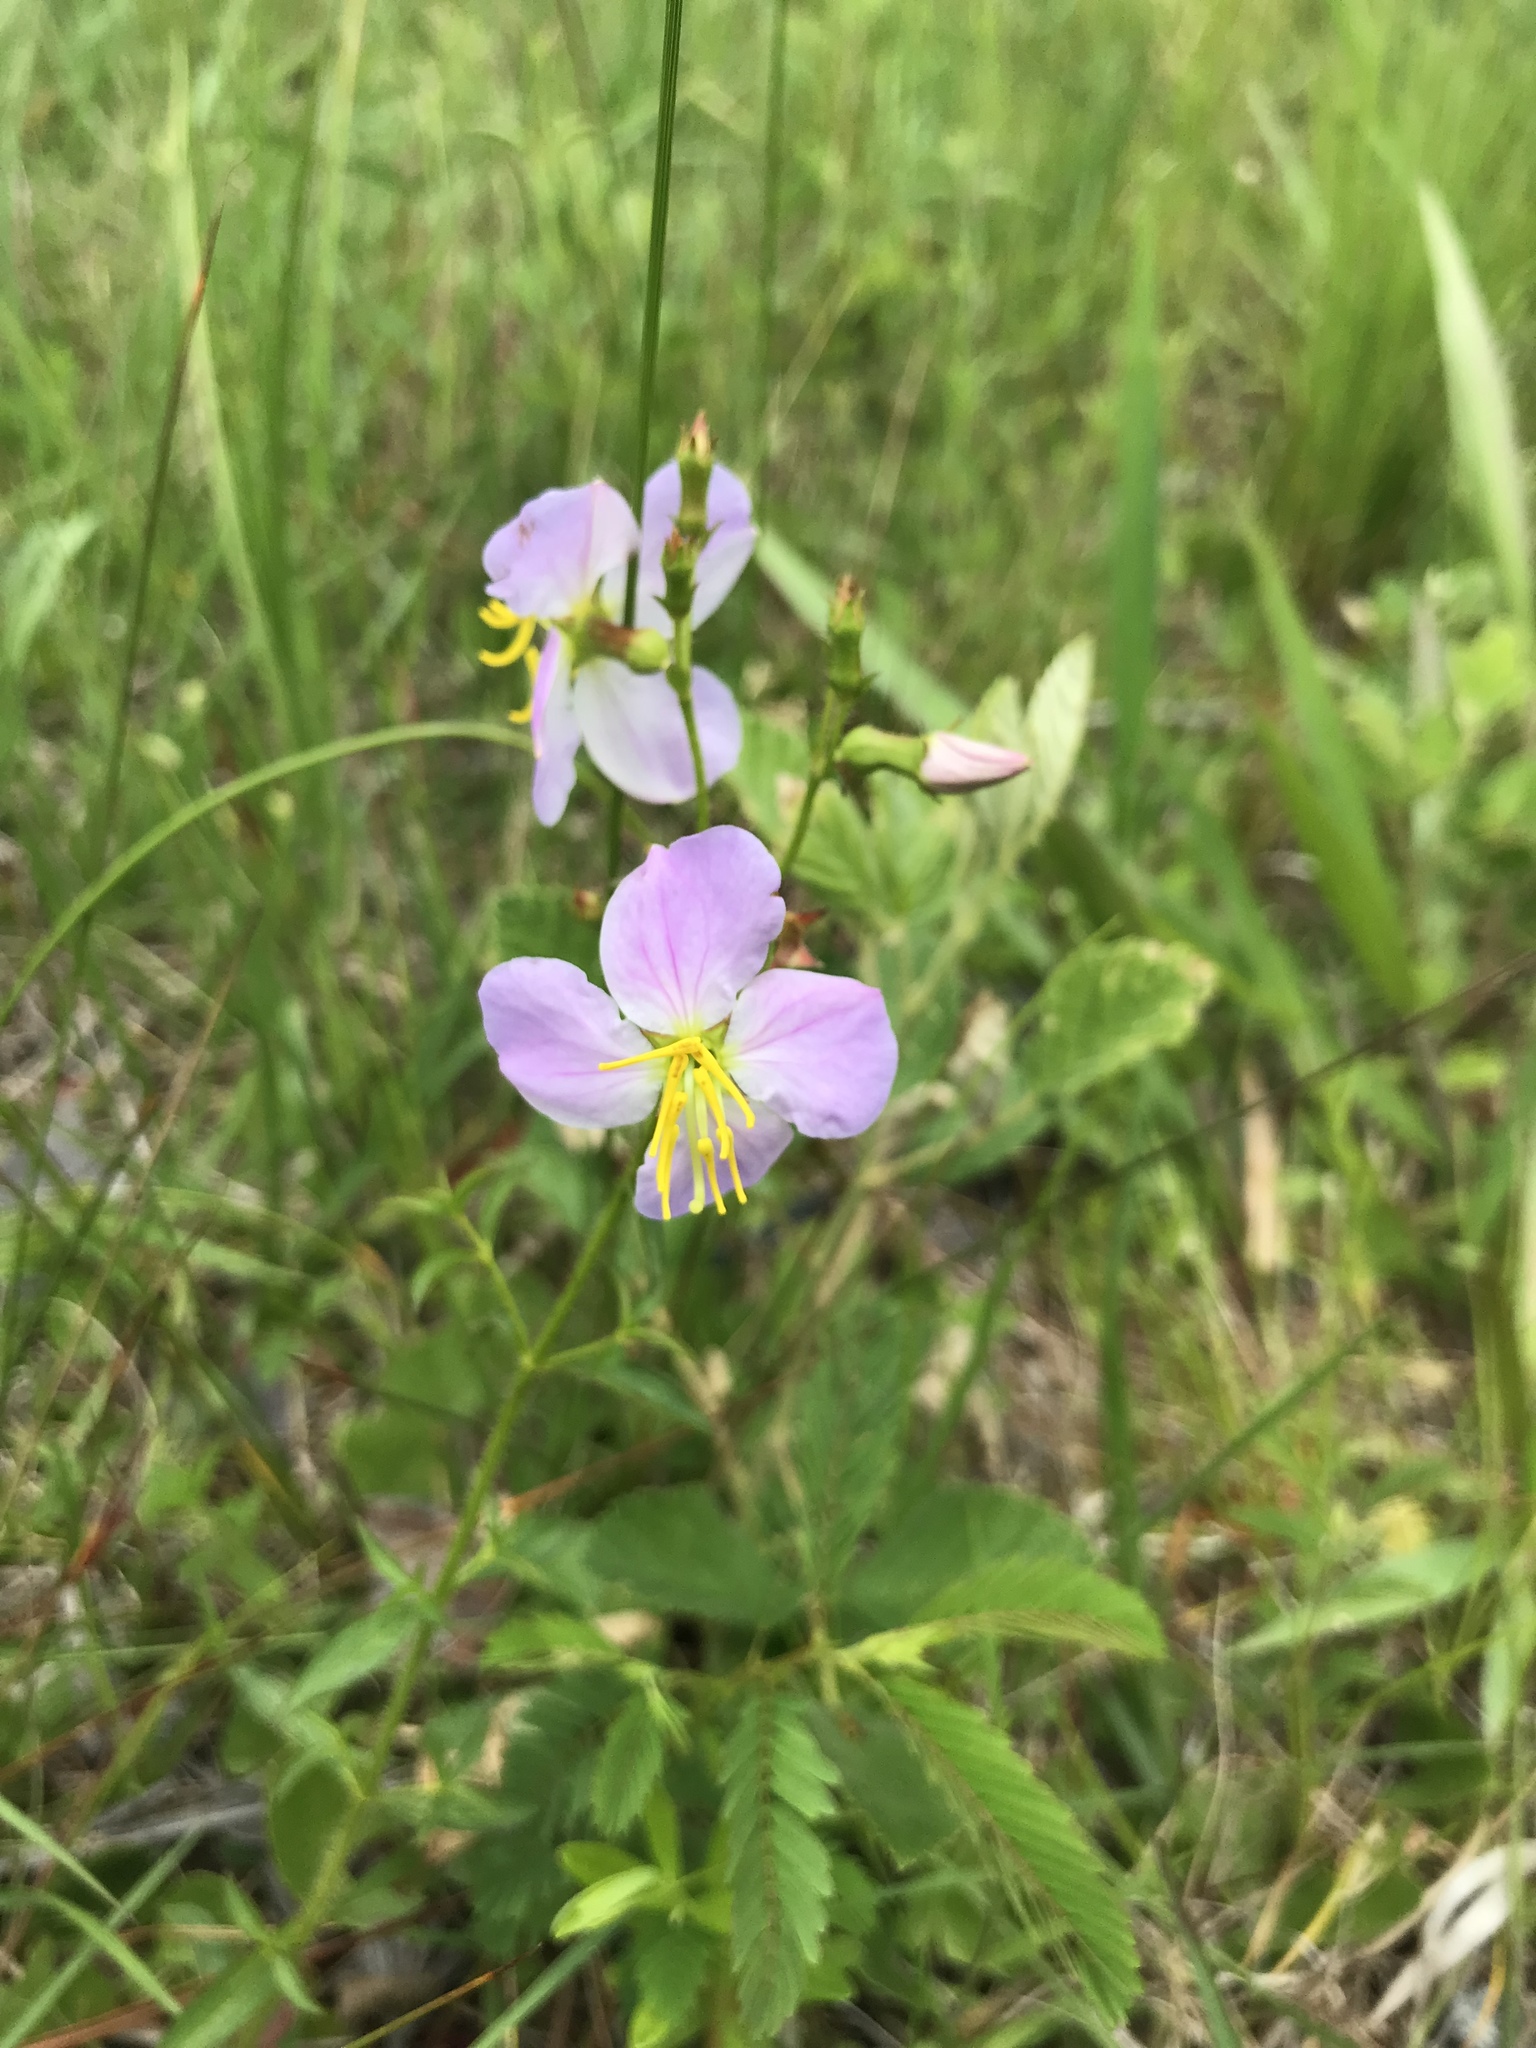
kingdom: Plantae
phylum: Tracheophyta
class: Magnoliopsida
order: Myrtales
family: Melastomataceae
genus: Rhexia
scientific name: Rhexia mariana
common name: Dull meadow-pitcher
